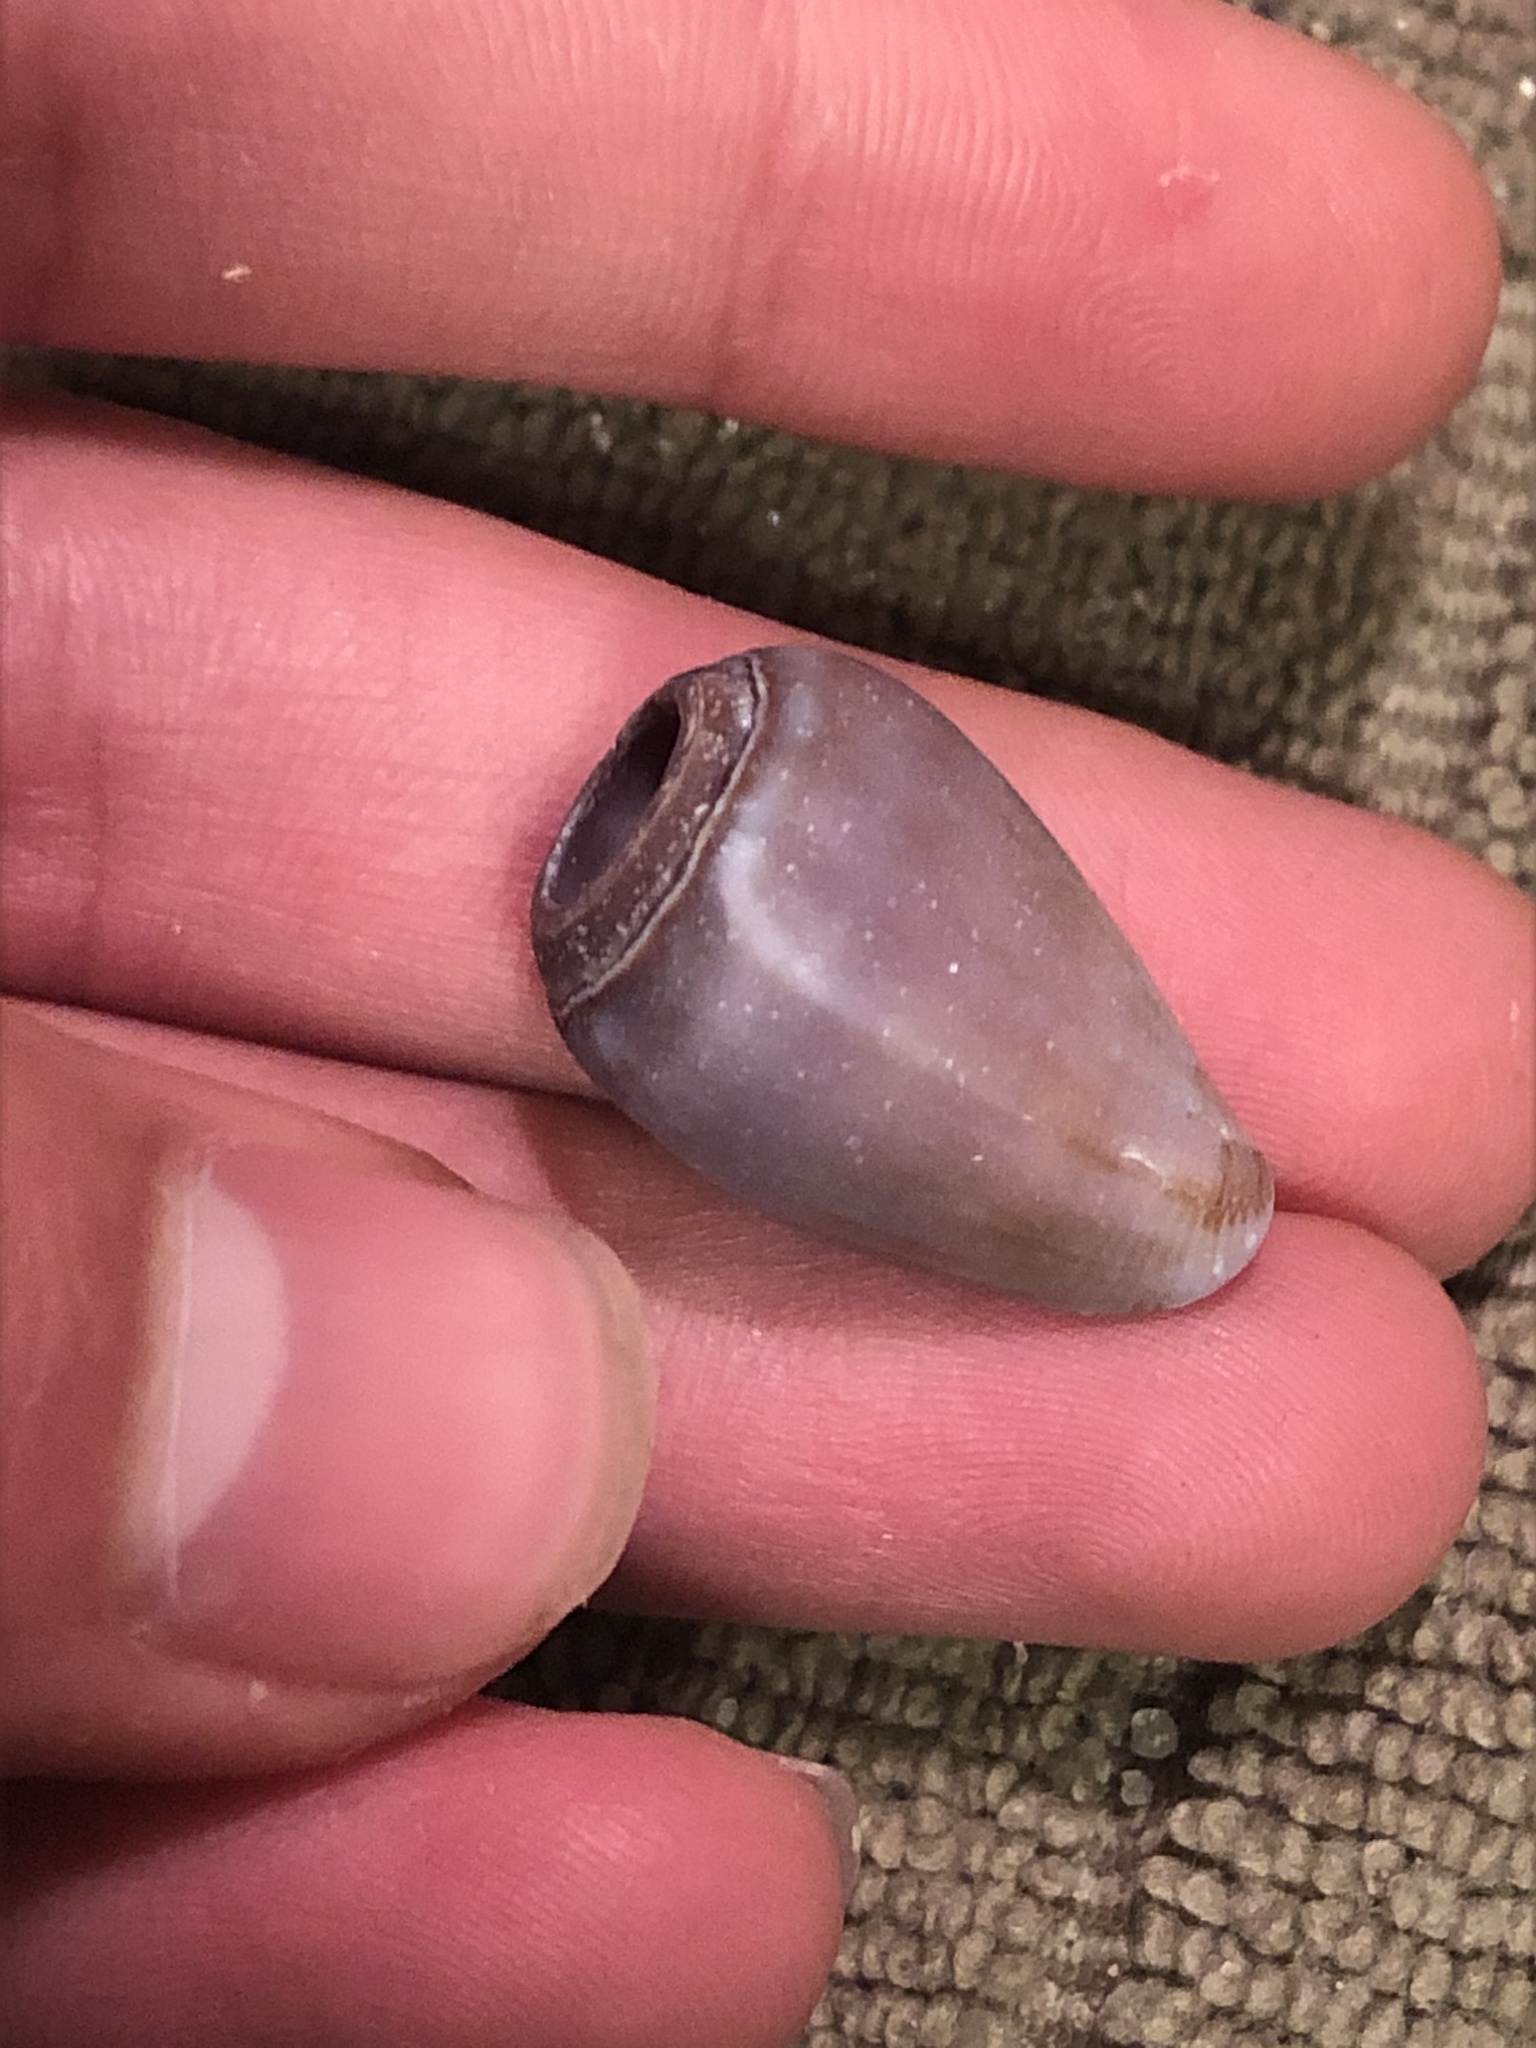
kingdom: Animalia
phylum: Mollusca
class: Gastropoda
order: Neogastropoda
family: Conidae
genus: Californiconus
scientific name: Californiconus californicus
